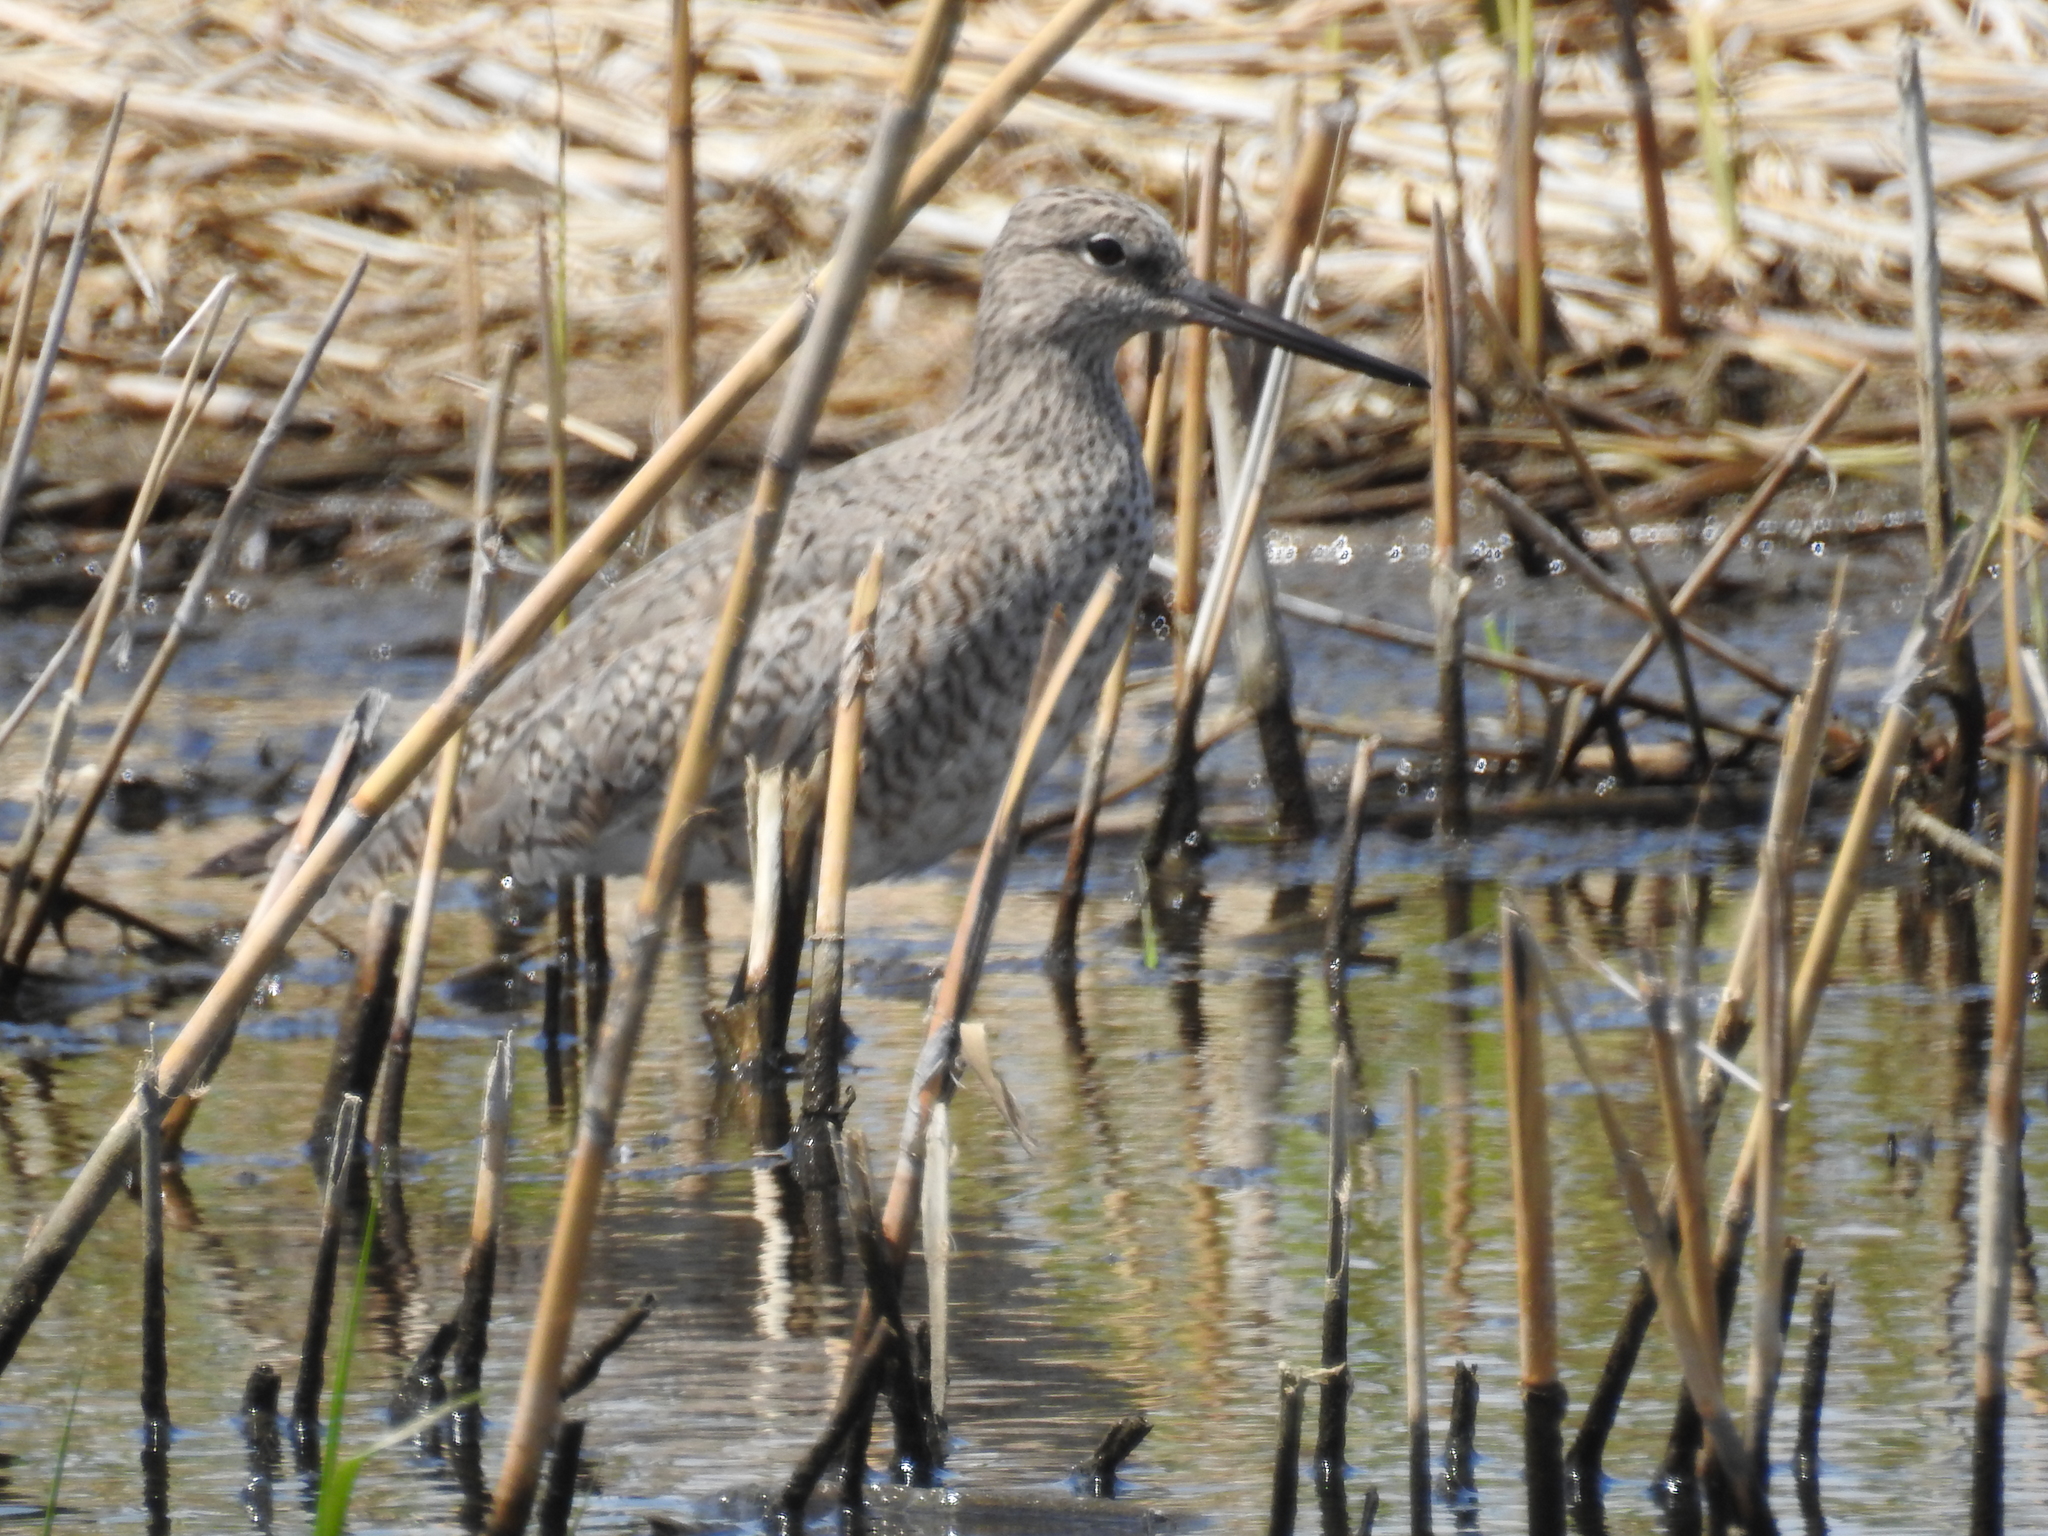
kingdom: Animalia
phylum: Chordata
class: Aves
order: Charadriiformes
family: Scolopacidae
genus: Tringa
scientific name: Tringa semipalmata
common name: Willet
